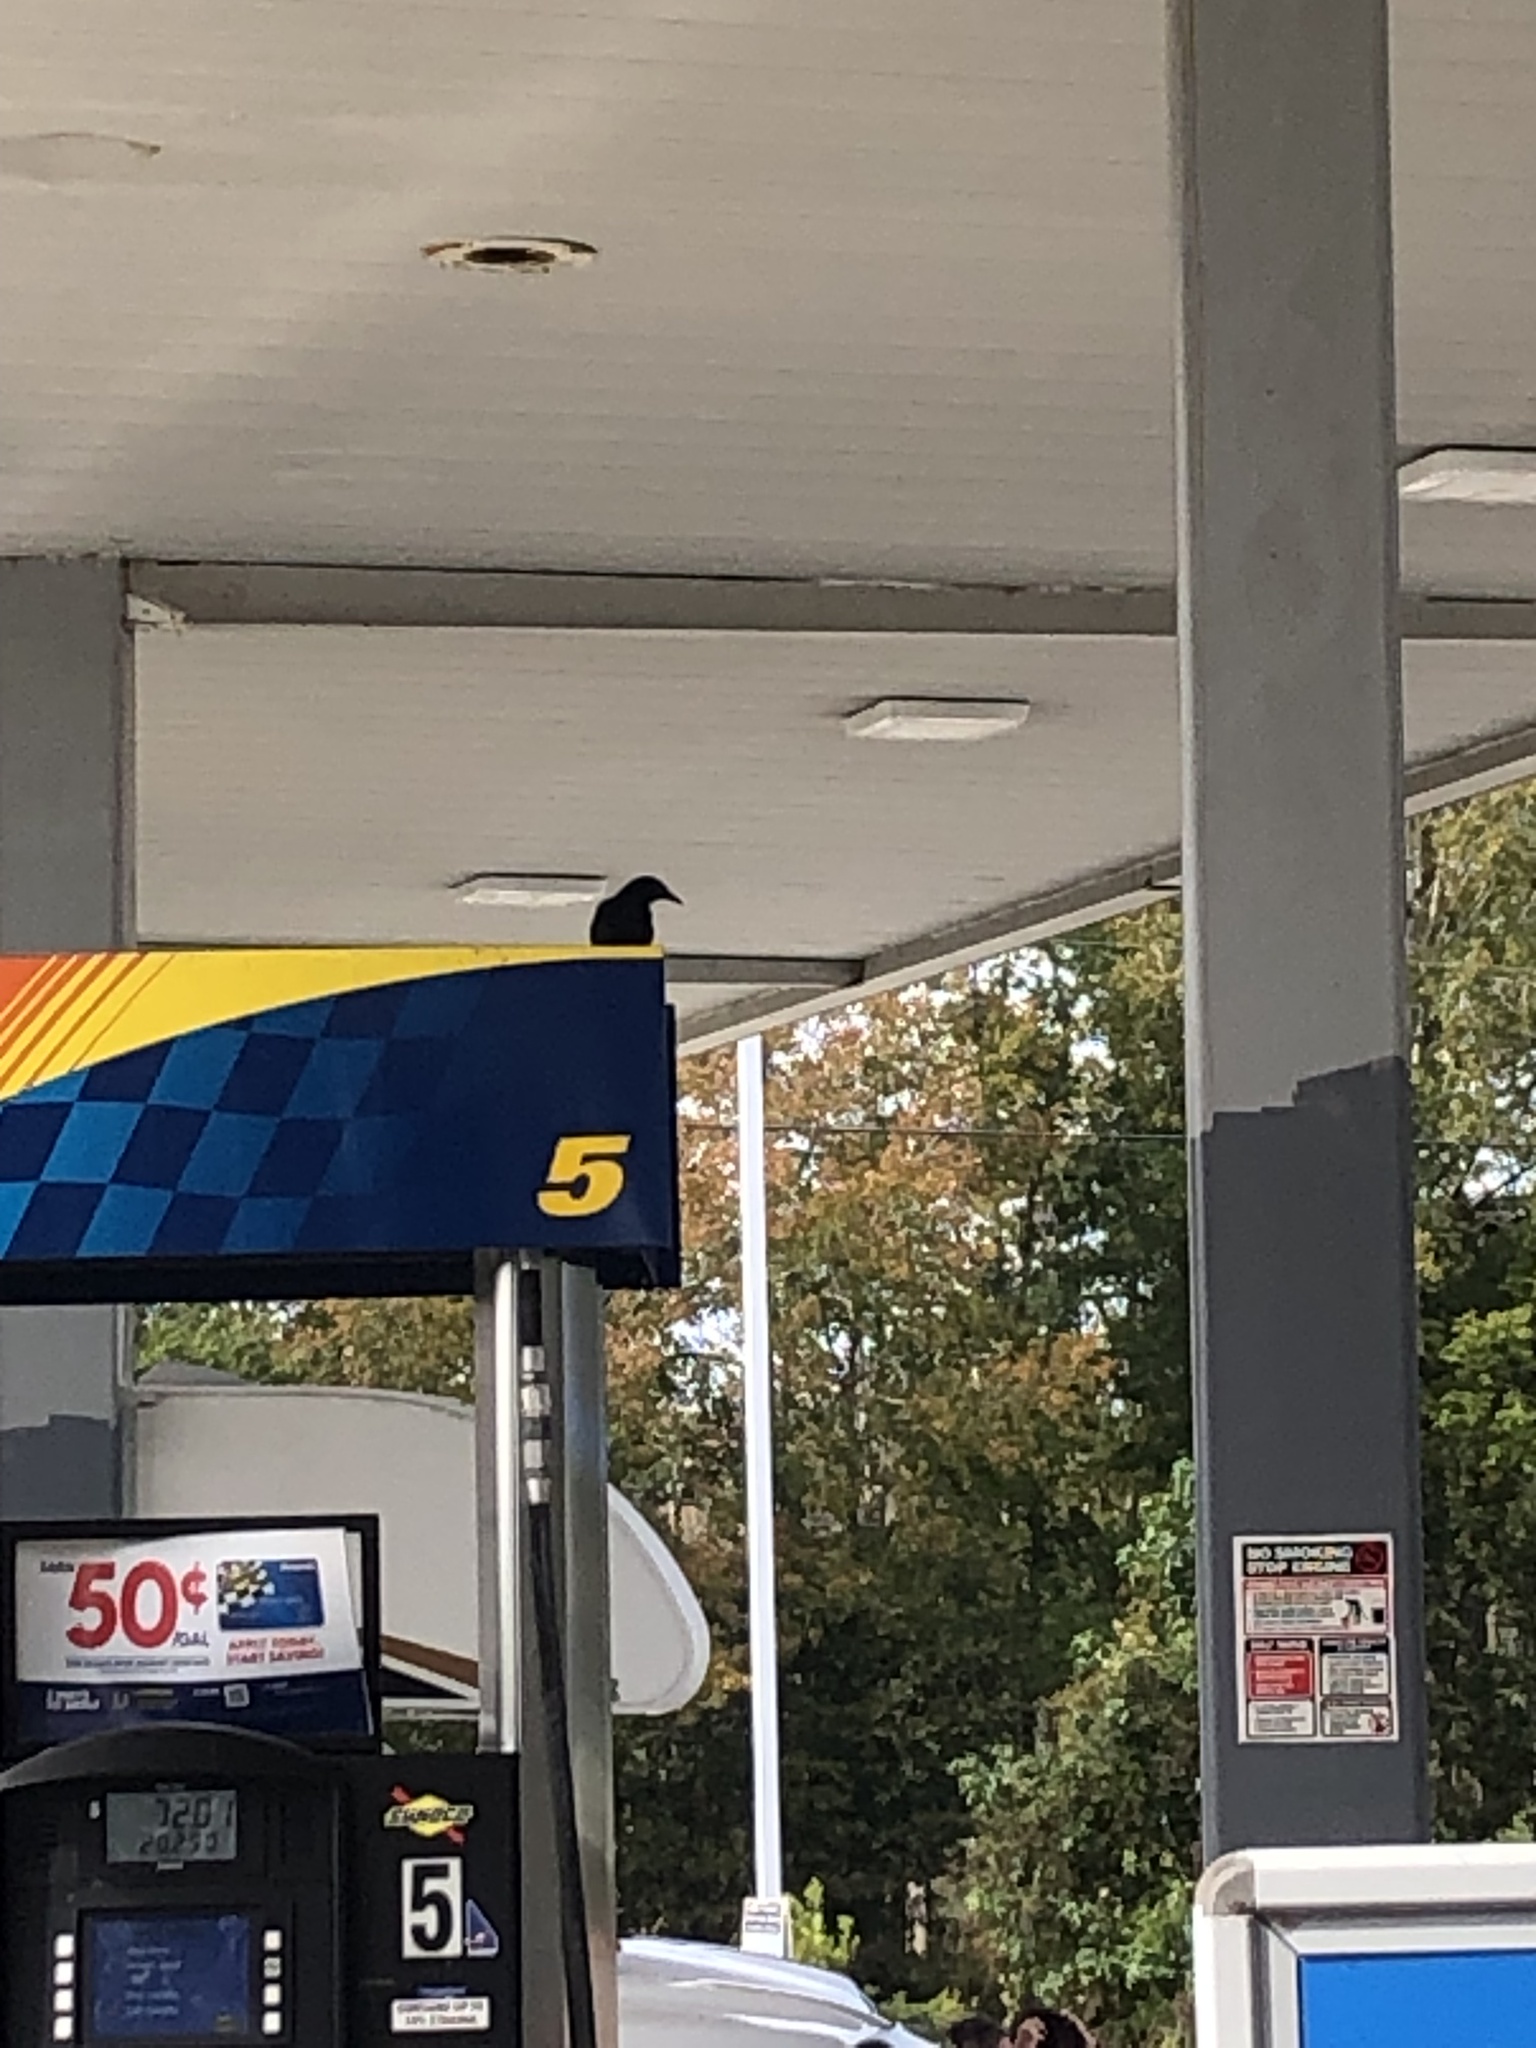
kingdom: Animalia
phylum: Chordata
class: Aves
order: Passeriformes
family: Icteridae
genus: Quiscalus
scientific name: Quiscalus major
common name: Boat-tailed grackle
